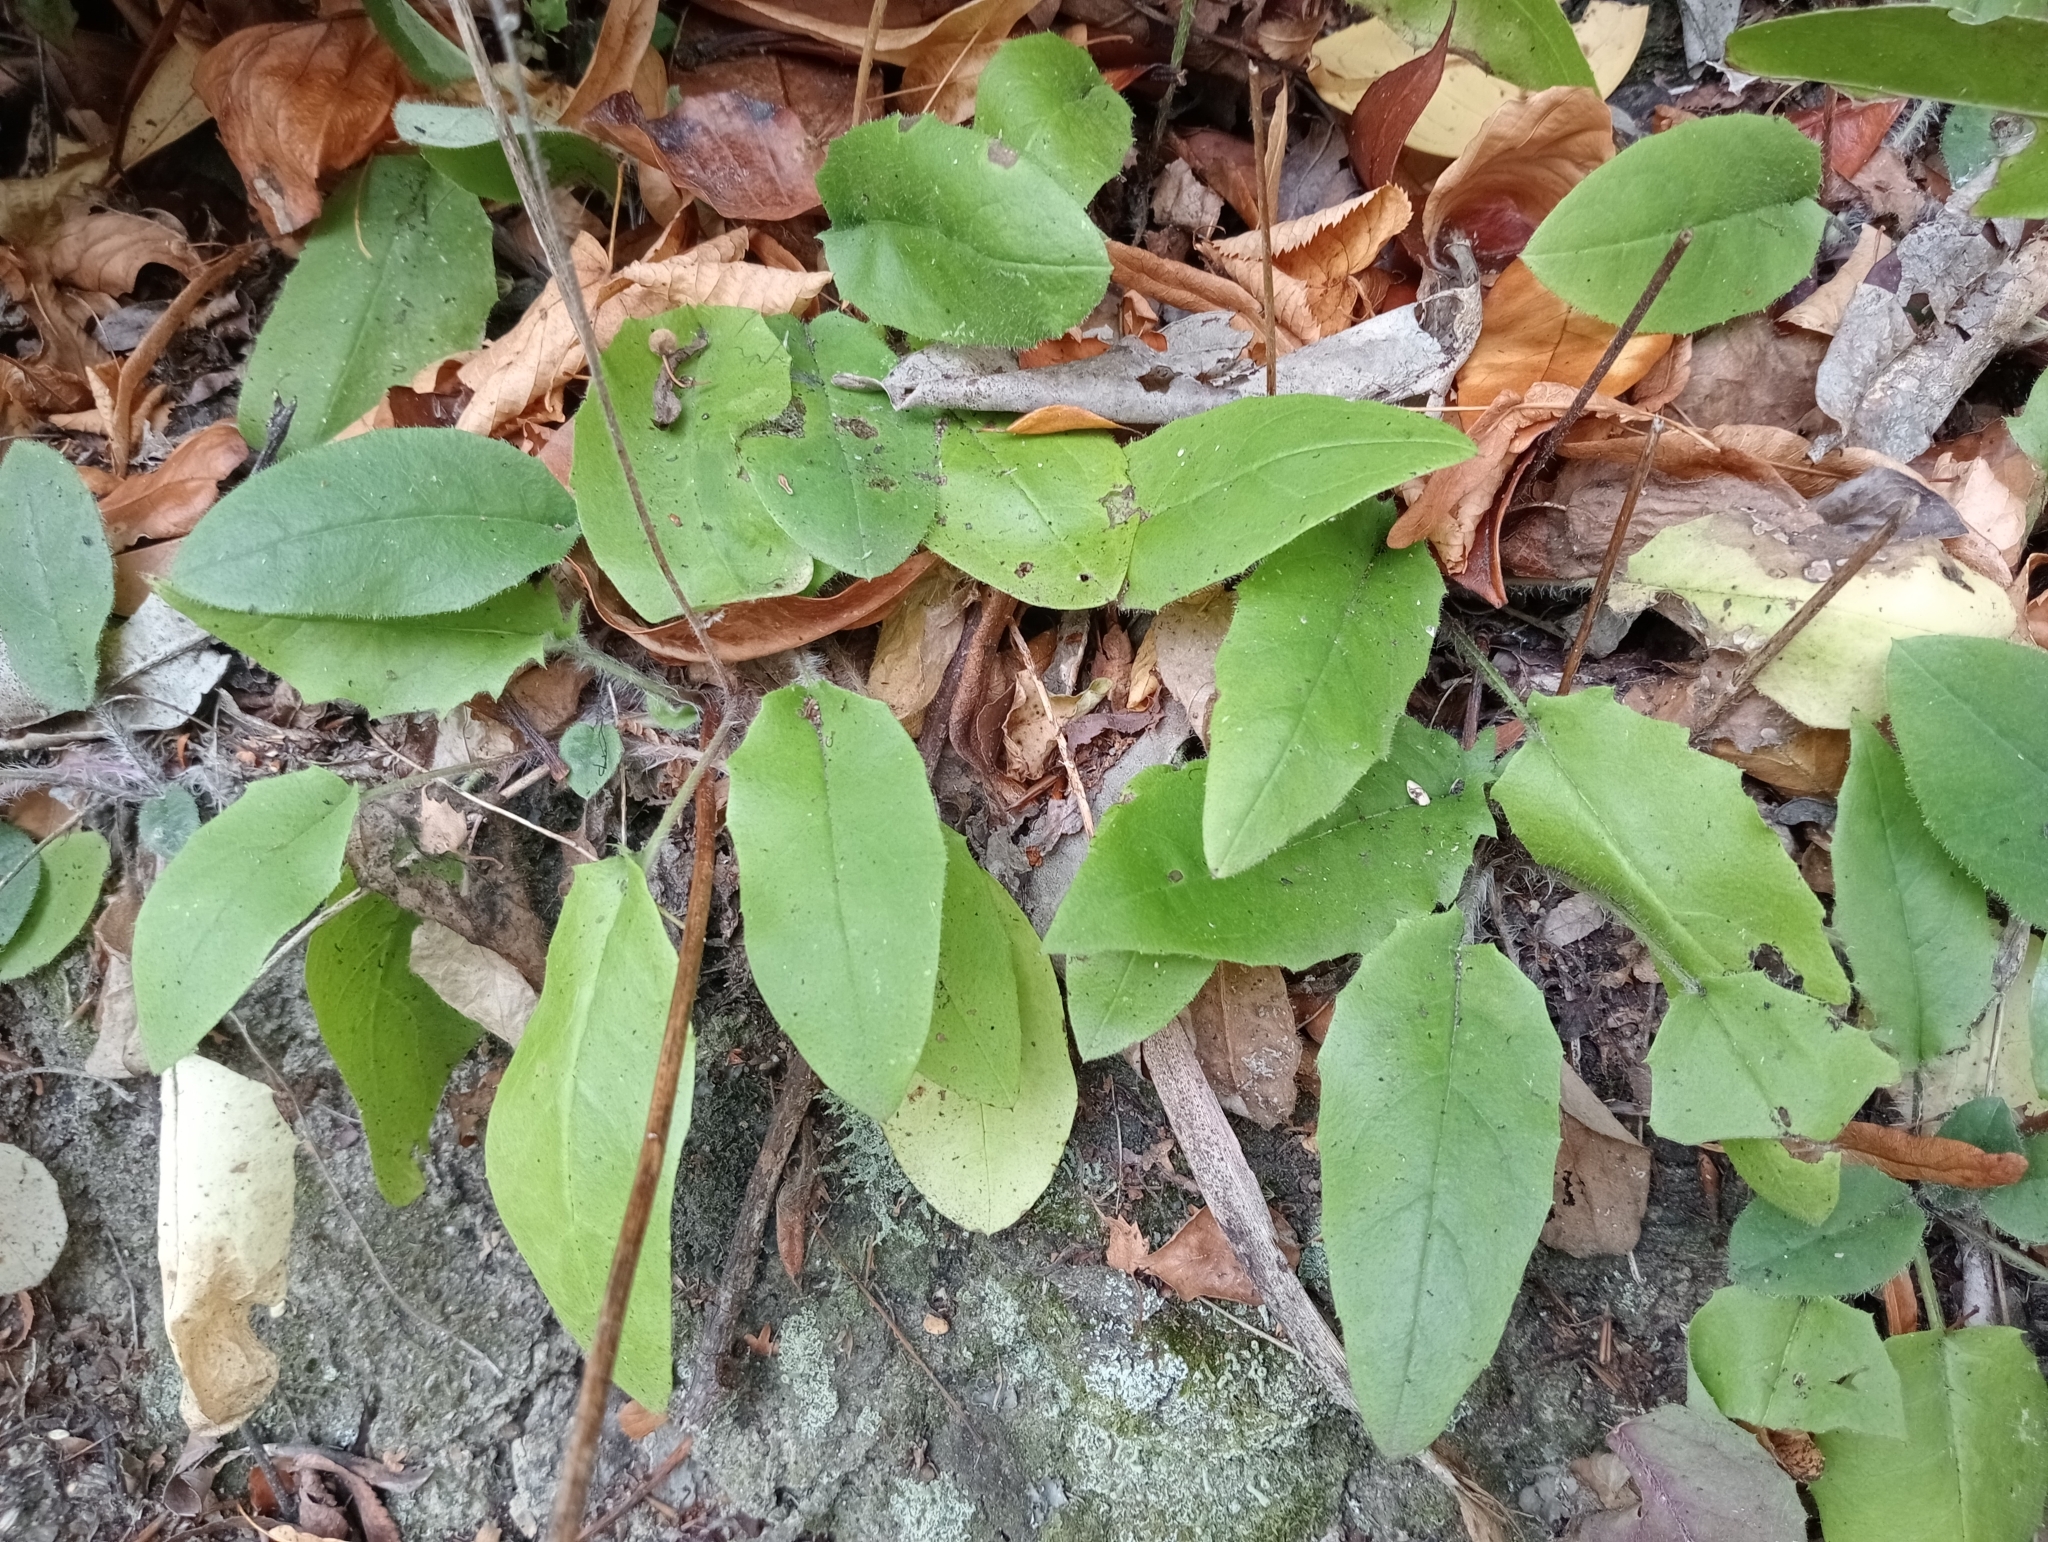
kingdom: Plantae
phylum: Tracheophyta
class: Magnoliopsida
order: Asterales
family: Asteraceae
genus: Hieracium
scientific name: Hieracium lepidulum
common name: Irregular-toothed hawkweed
